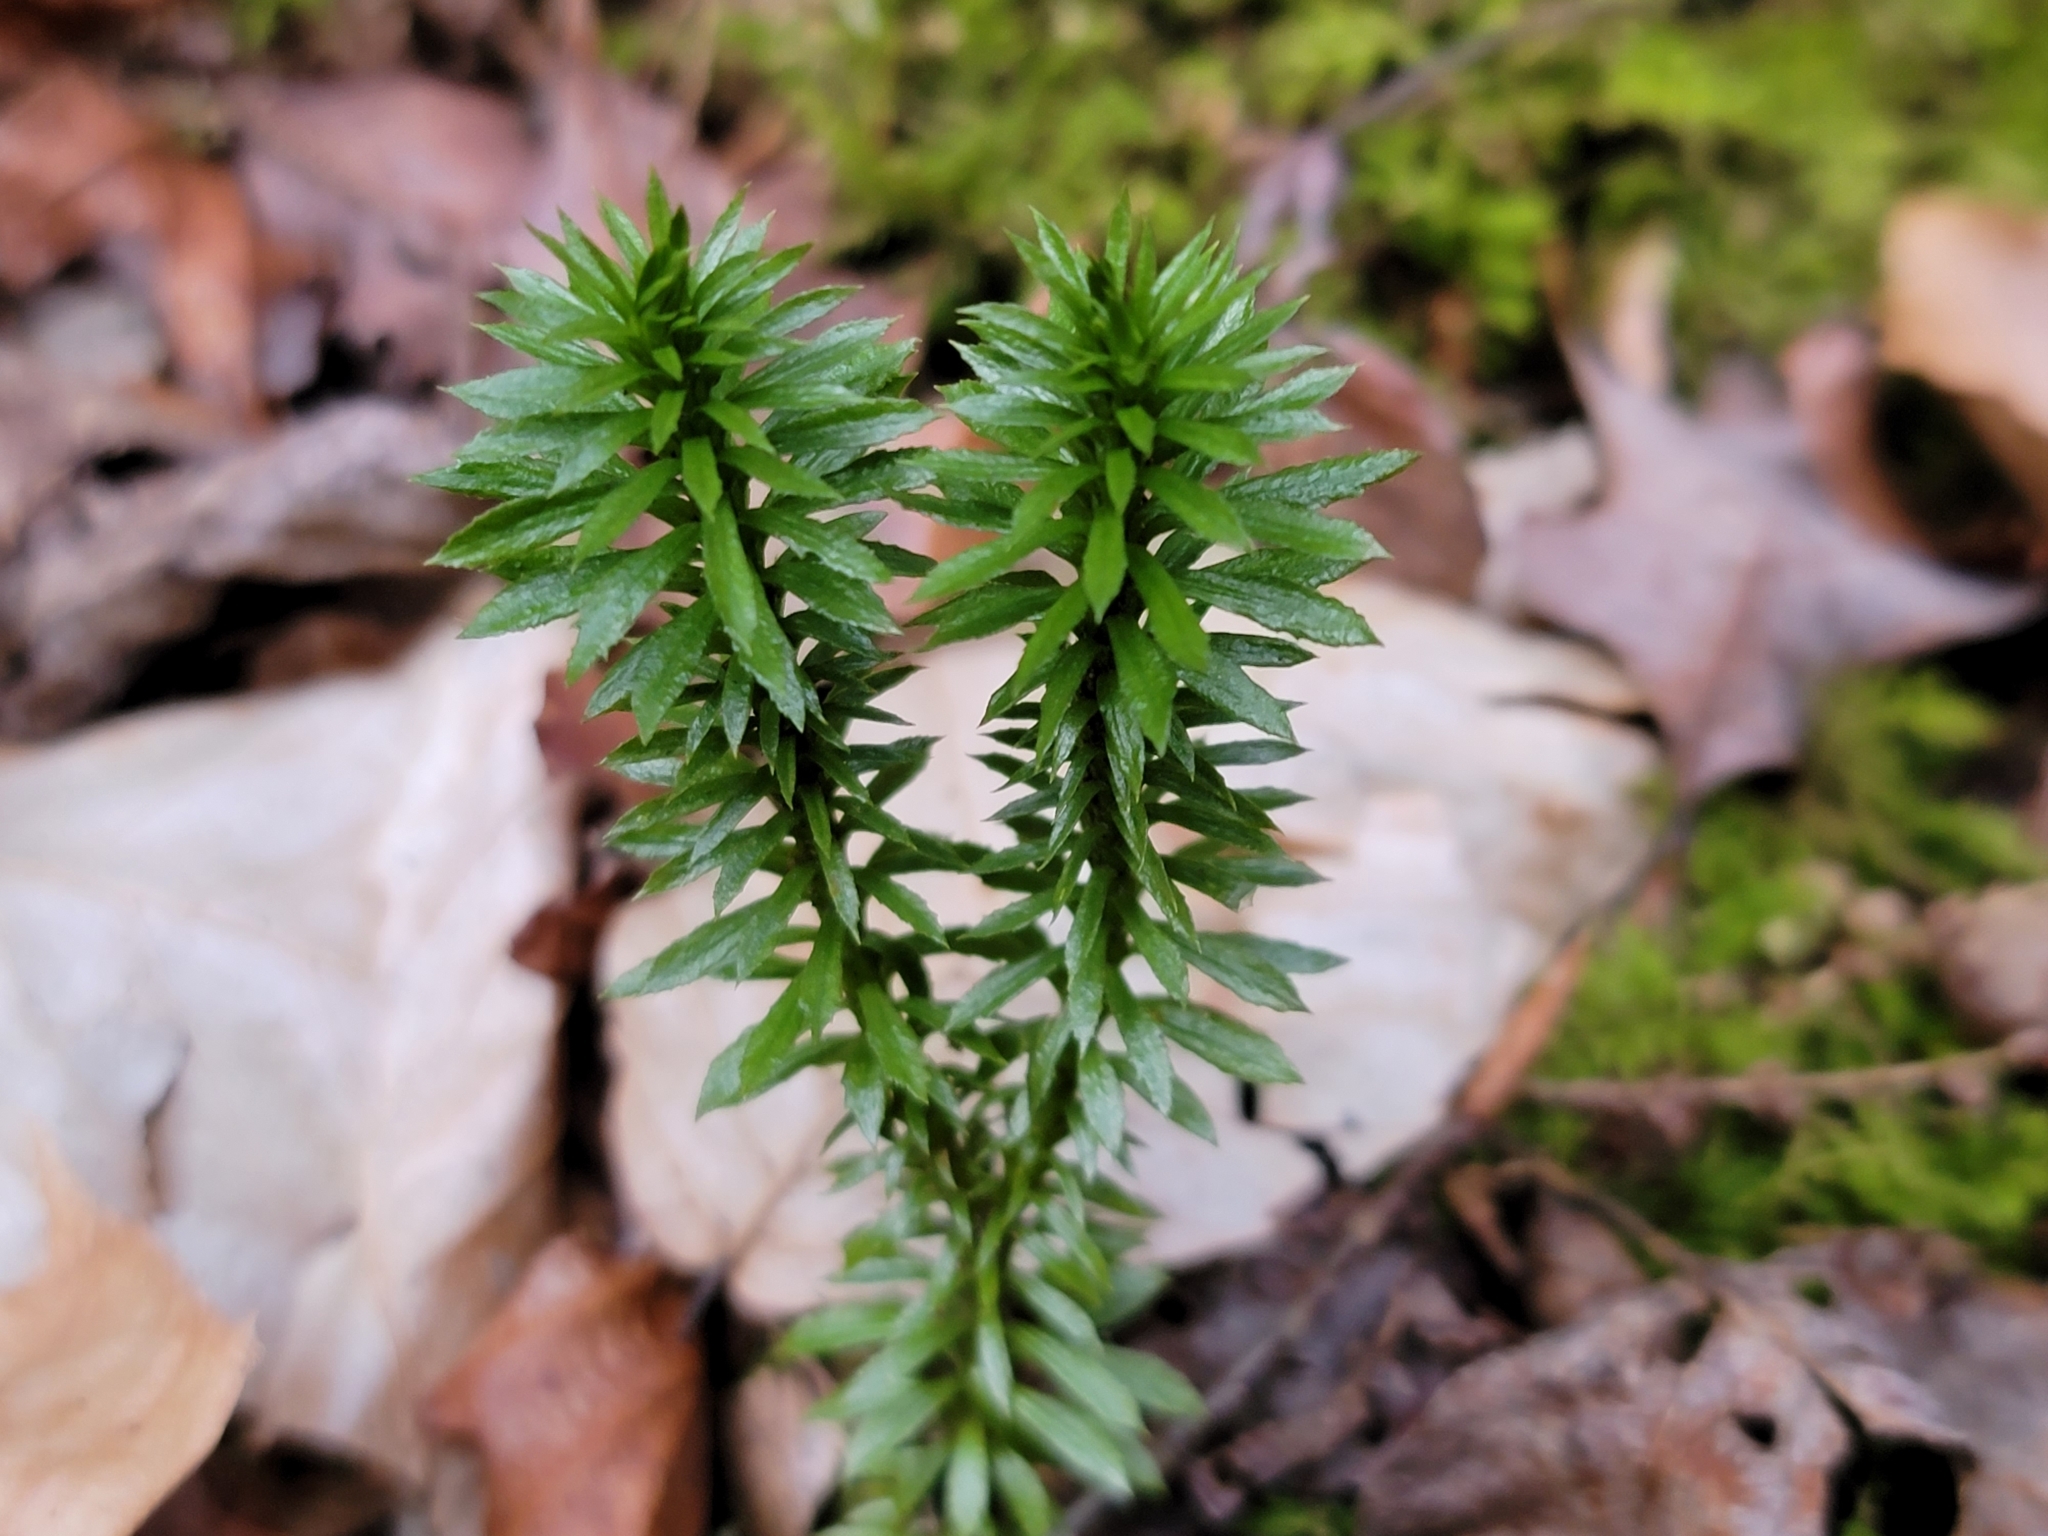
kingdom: Plantae
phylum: Tracheophyta
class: Lycopodiopsida
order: Lycopodiales
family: Lycopodiaceae
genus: Huperzia
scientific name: Huperzia lucidula
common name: Shining clubmoss
